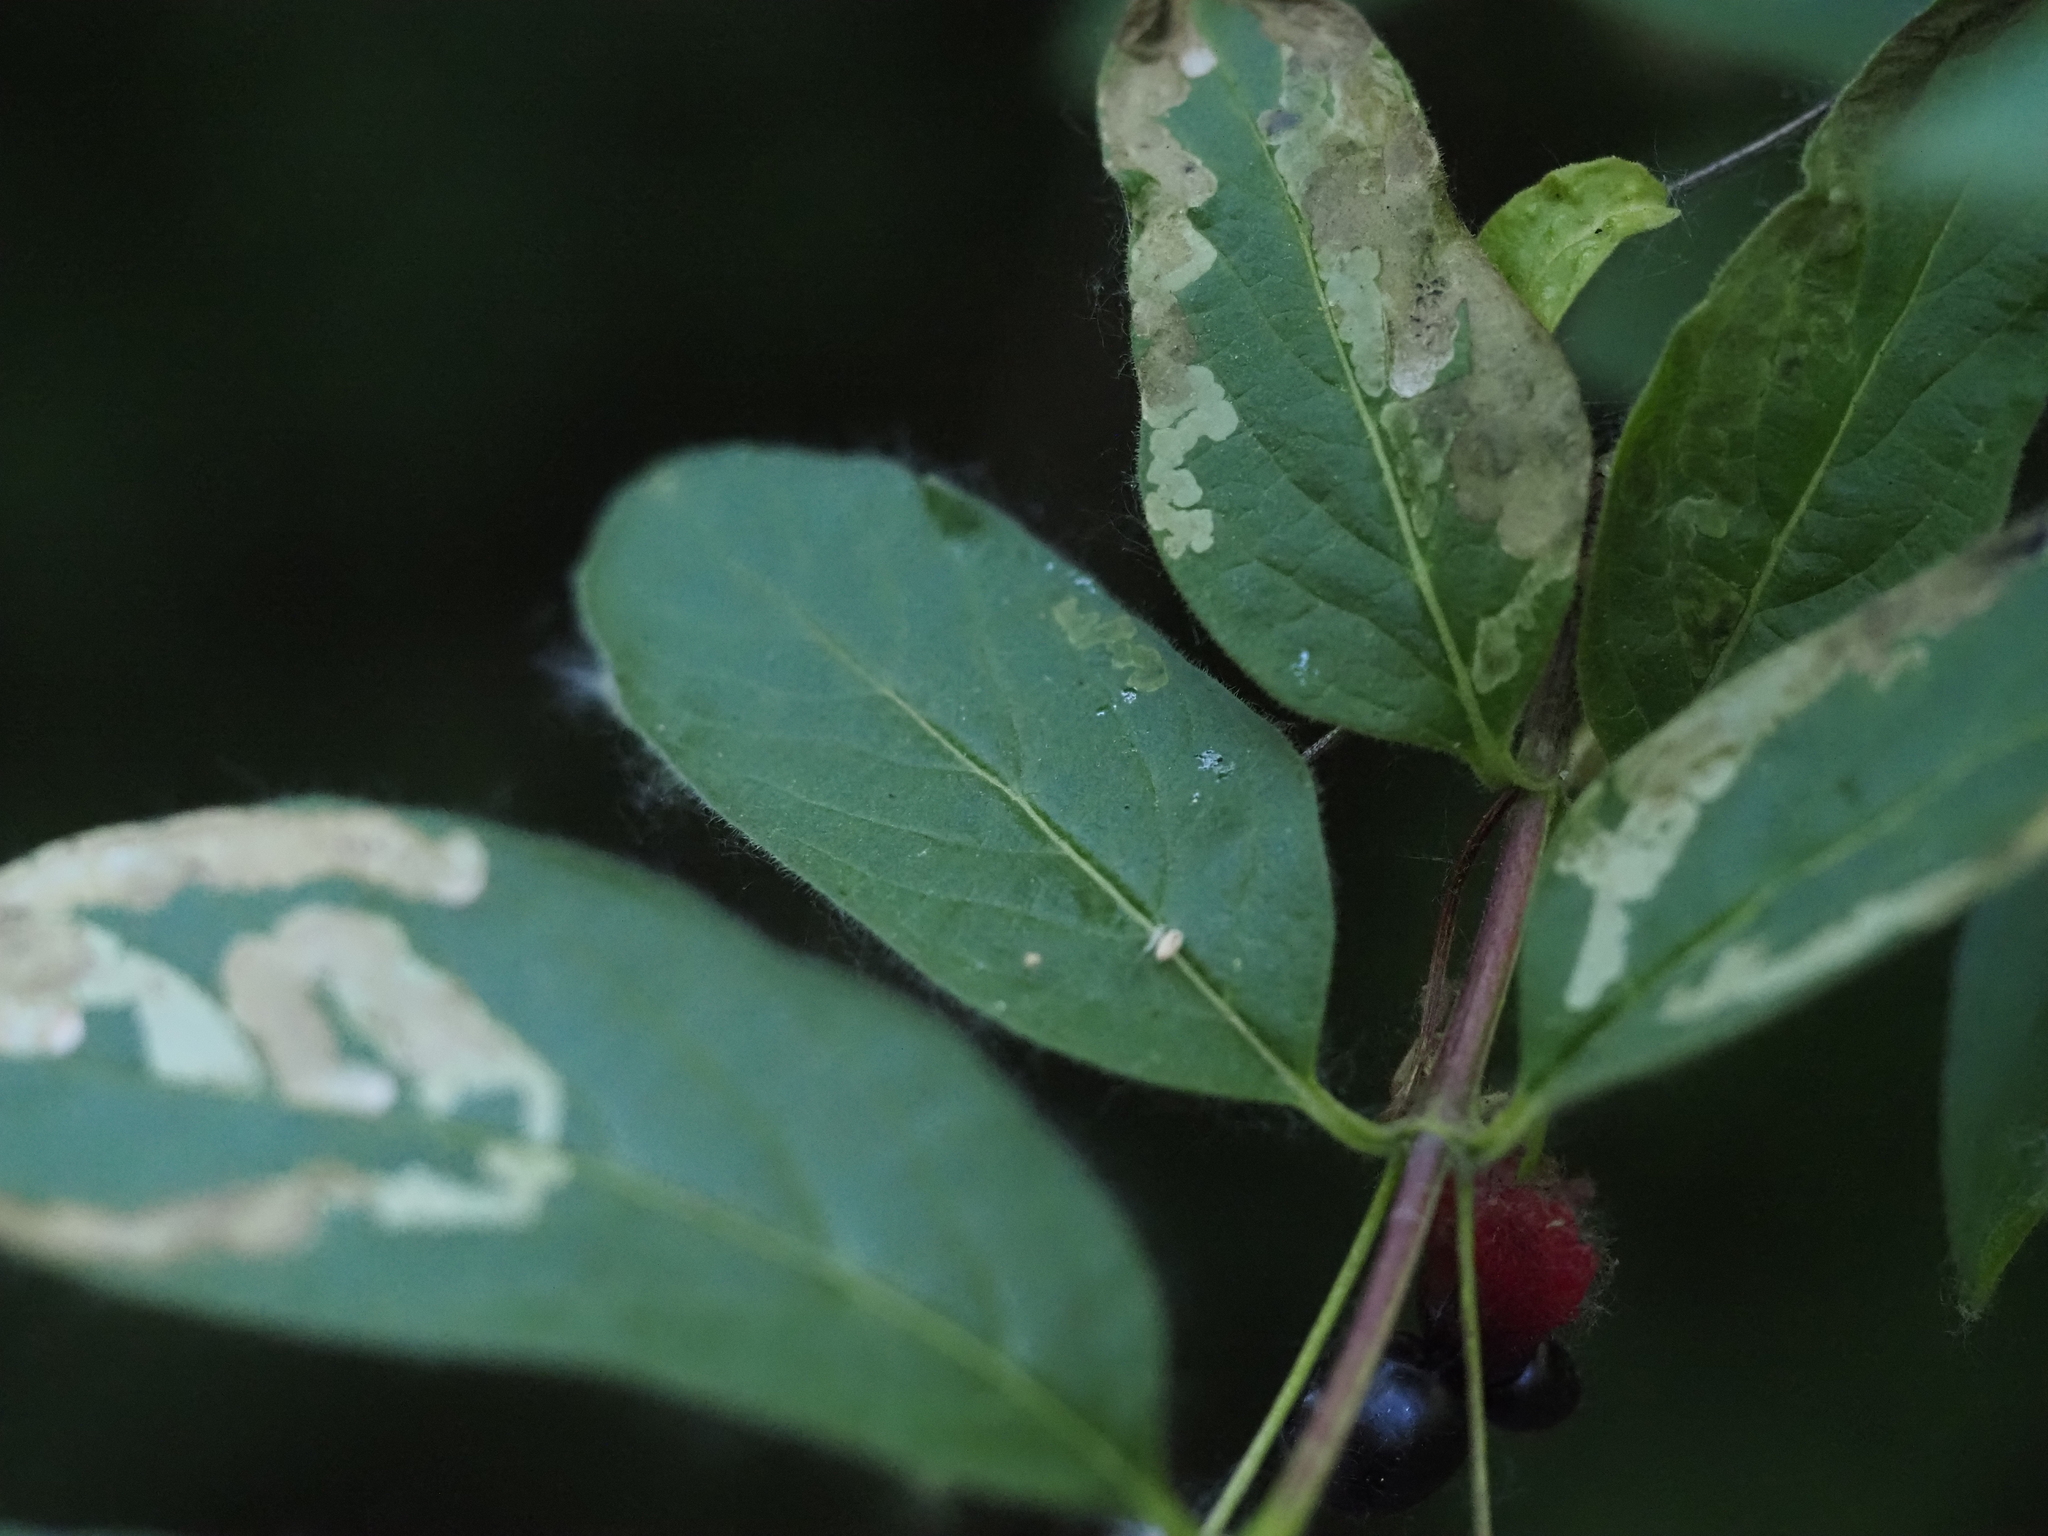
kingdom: Plantae
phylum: Tracheophyta
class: Magnoliopsida
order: Dipsacales
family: Caprifoliaceae
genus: Lonicera
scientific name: Lonicera involucrata
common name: Californian honeysuckle
